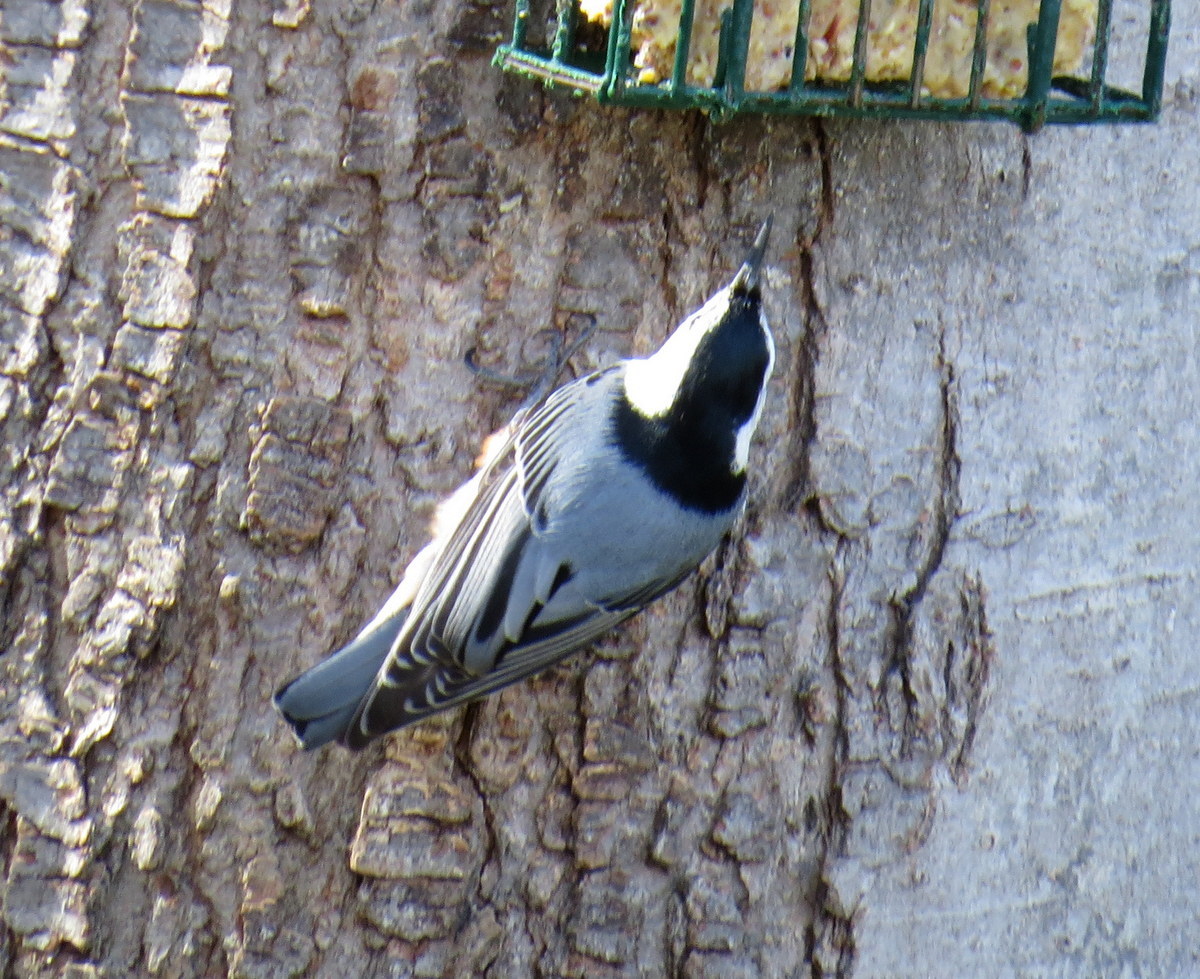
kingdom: Animalia
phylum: Chordata
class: Aves
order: Passeriformes
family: Sittidae
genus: Sitta
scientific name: Sitta carolinensis
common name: White-breasted nuthatch
